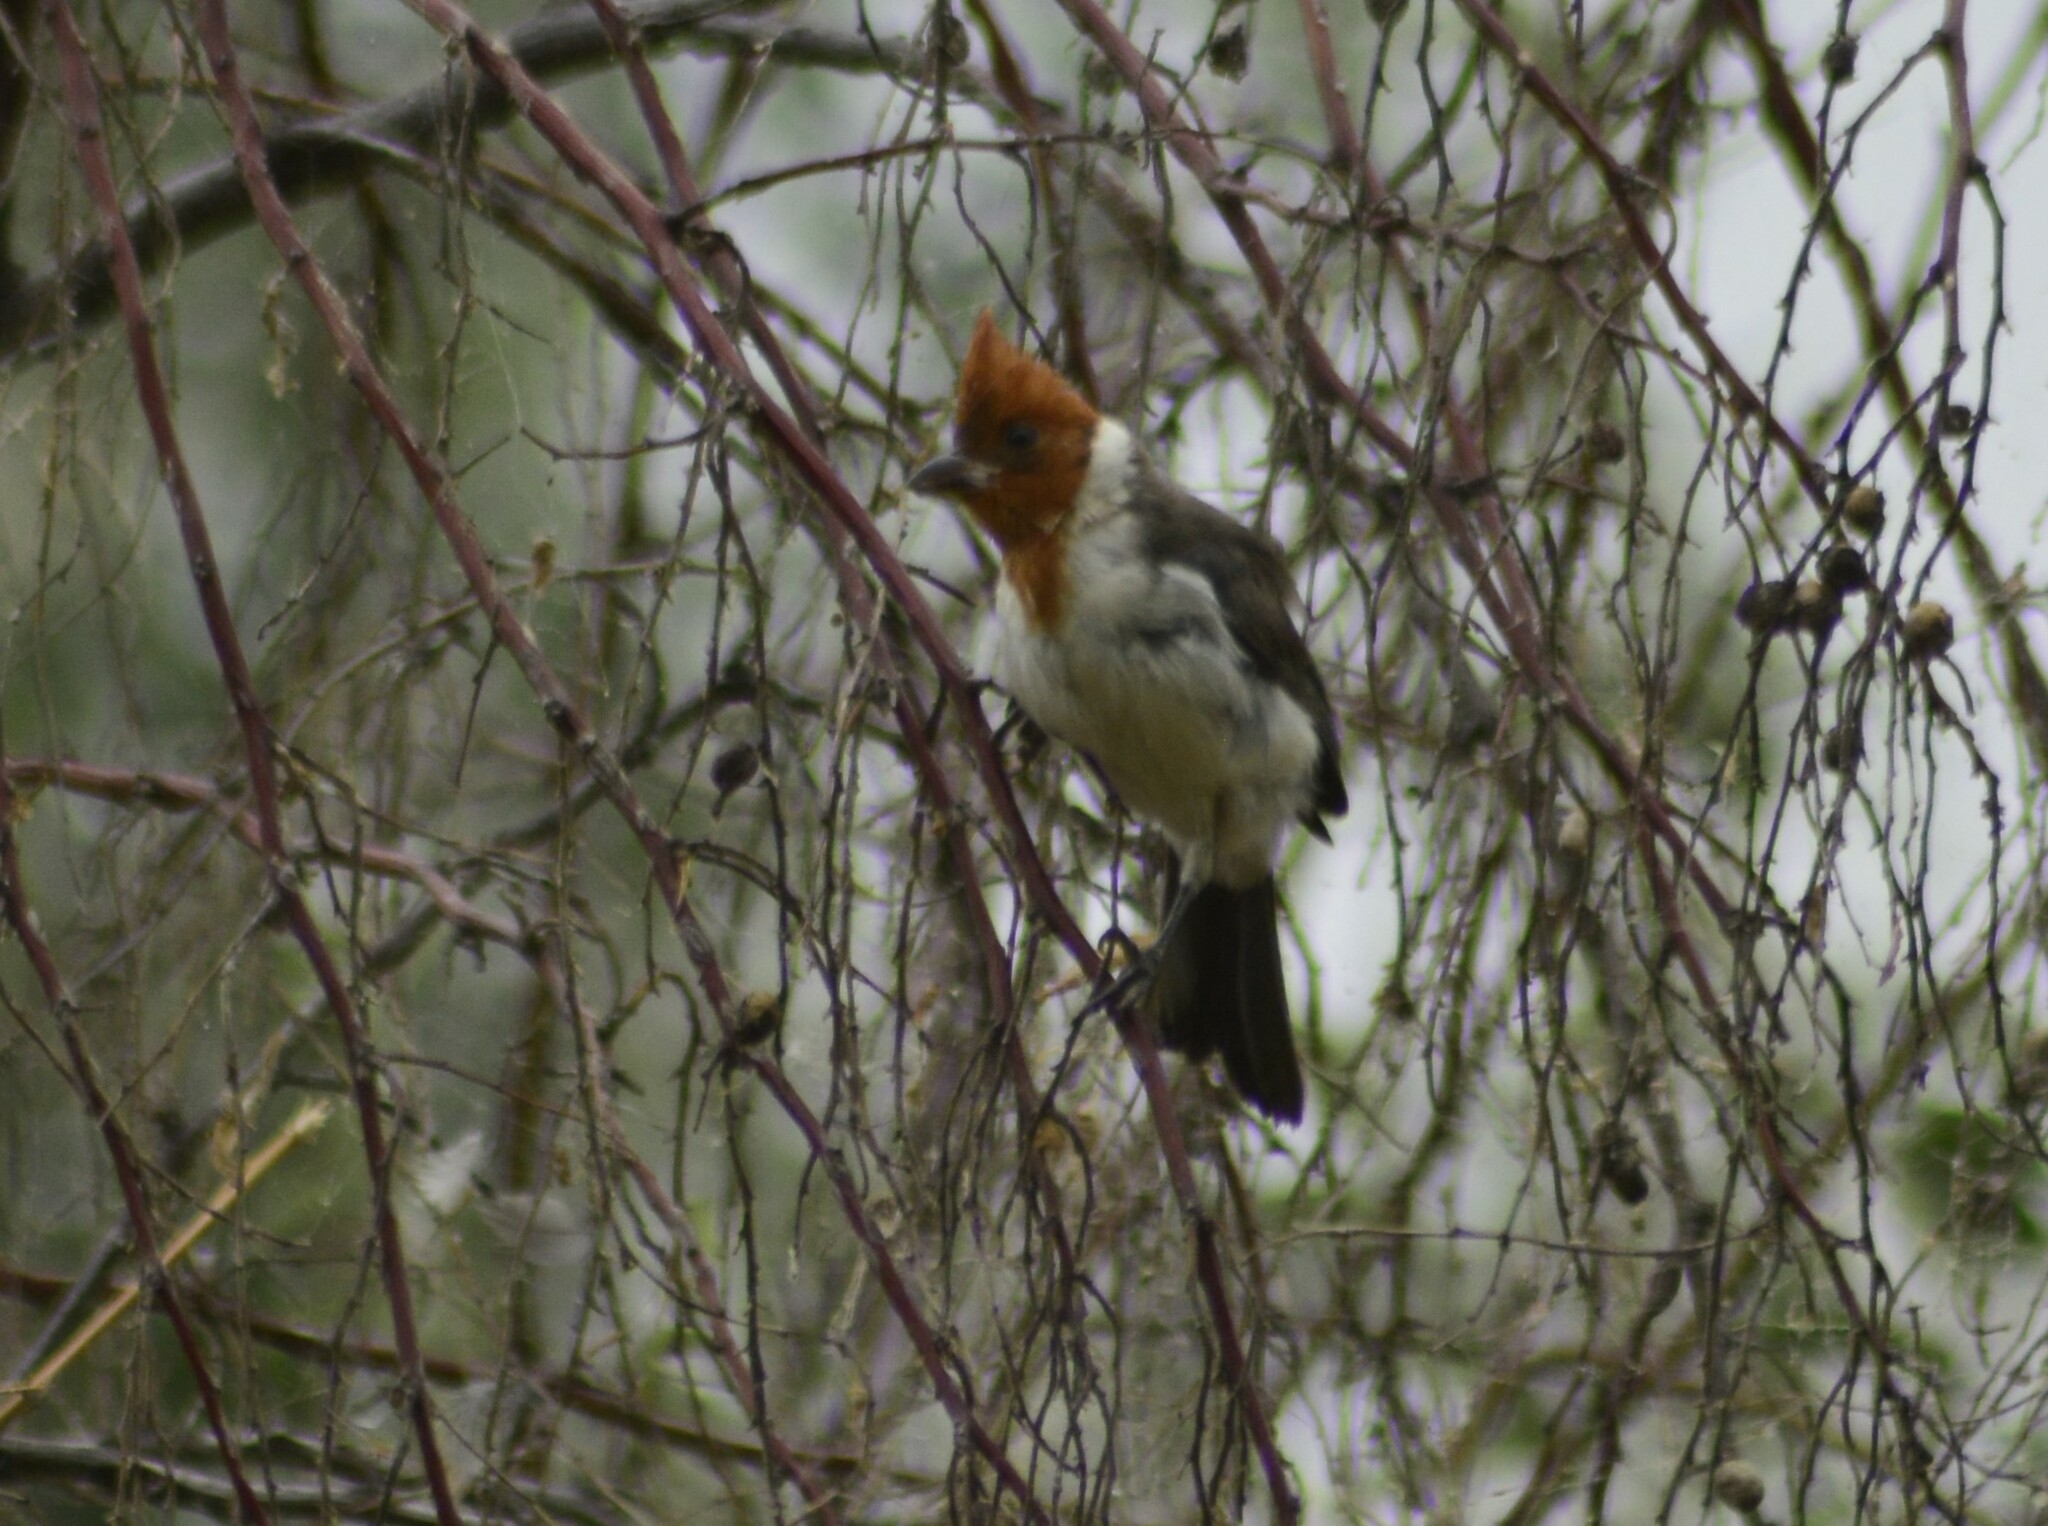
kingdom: Animalia
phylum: Chordata
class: Aves
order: Passeriformes
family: Thraupidae
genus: Paroaria
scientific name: Paroaria coronata
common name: Red-crested cardinal
